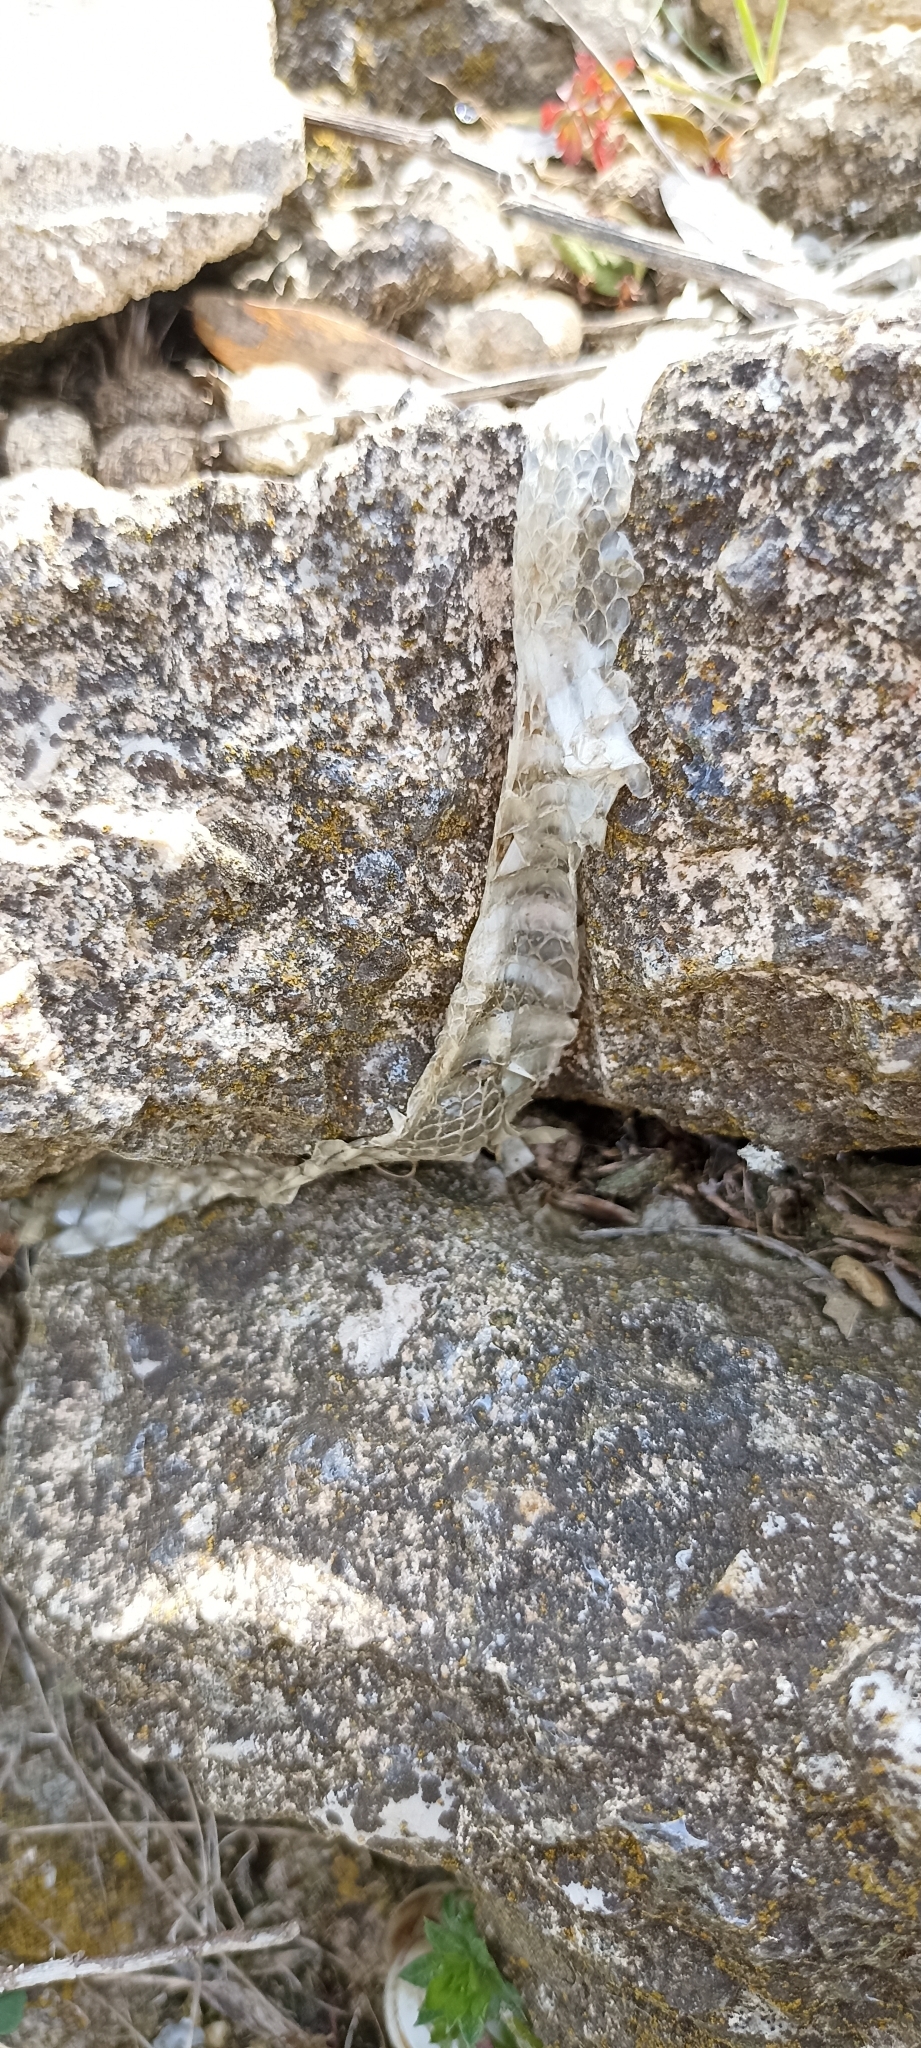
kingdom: Animalia
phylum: Chordata
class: Squamata
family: Colubridae
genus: Zamenis
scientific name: Zamenis scalaris
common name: Ladder snakes
